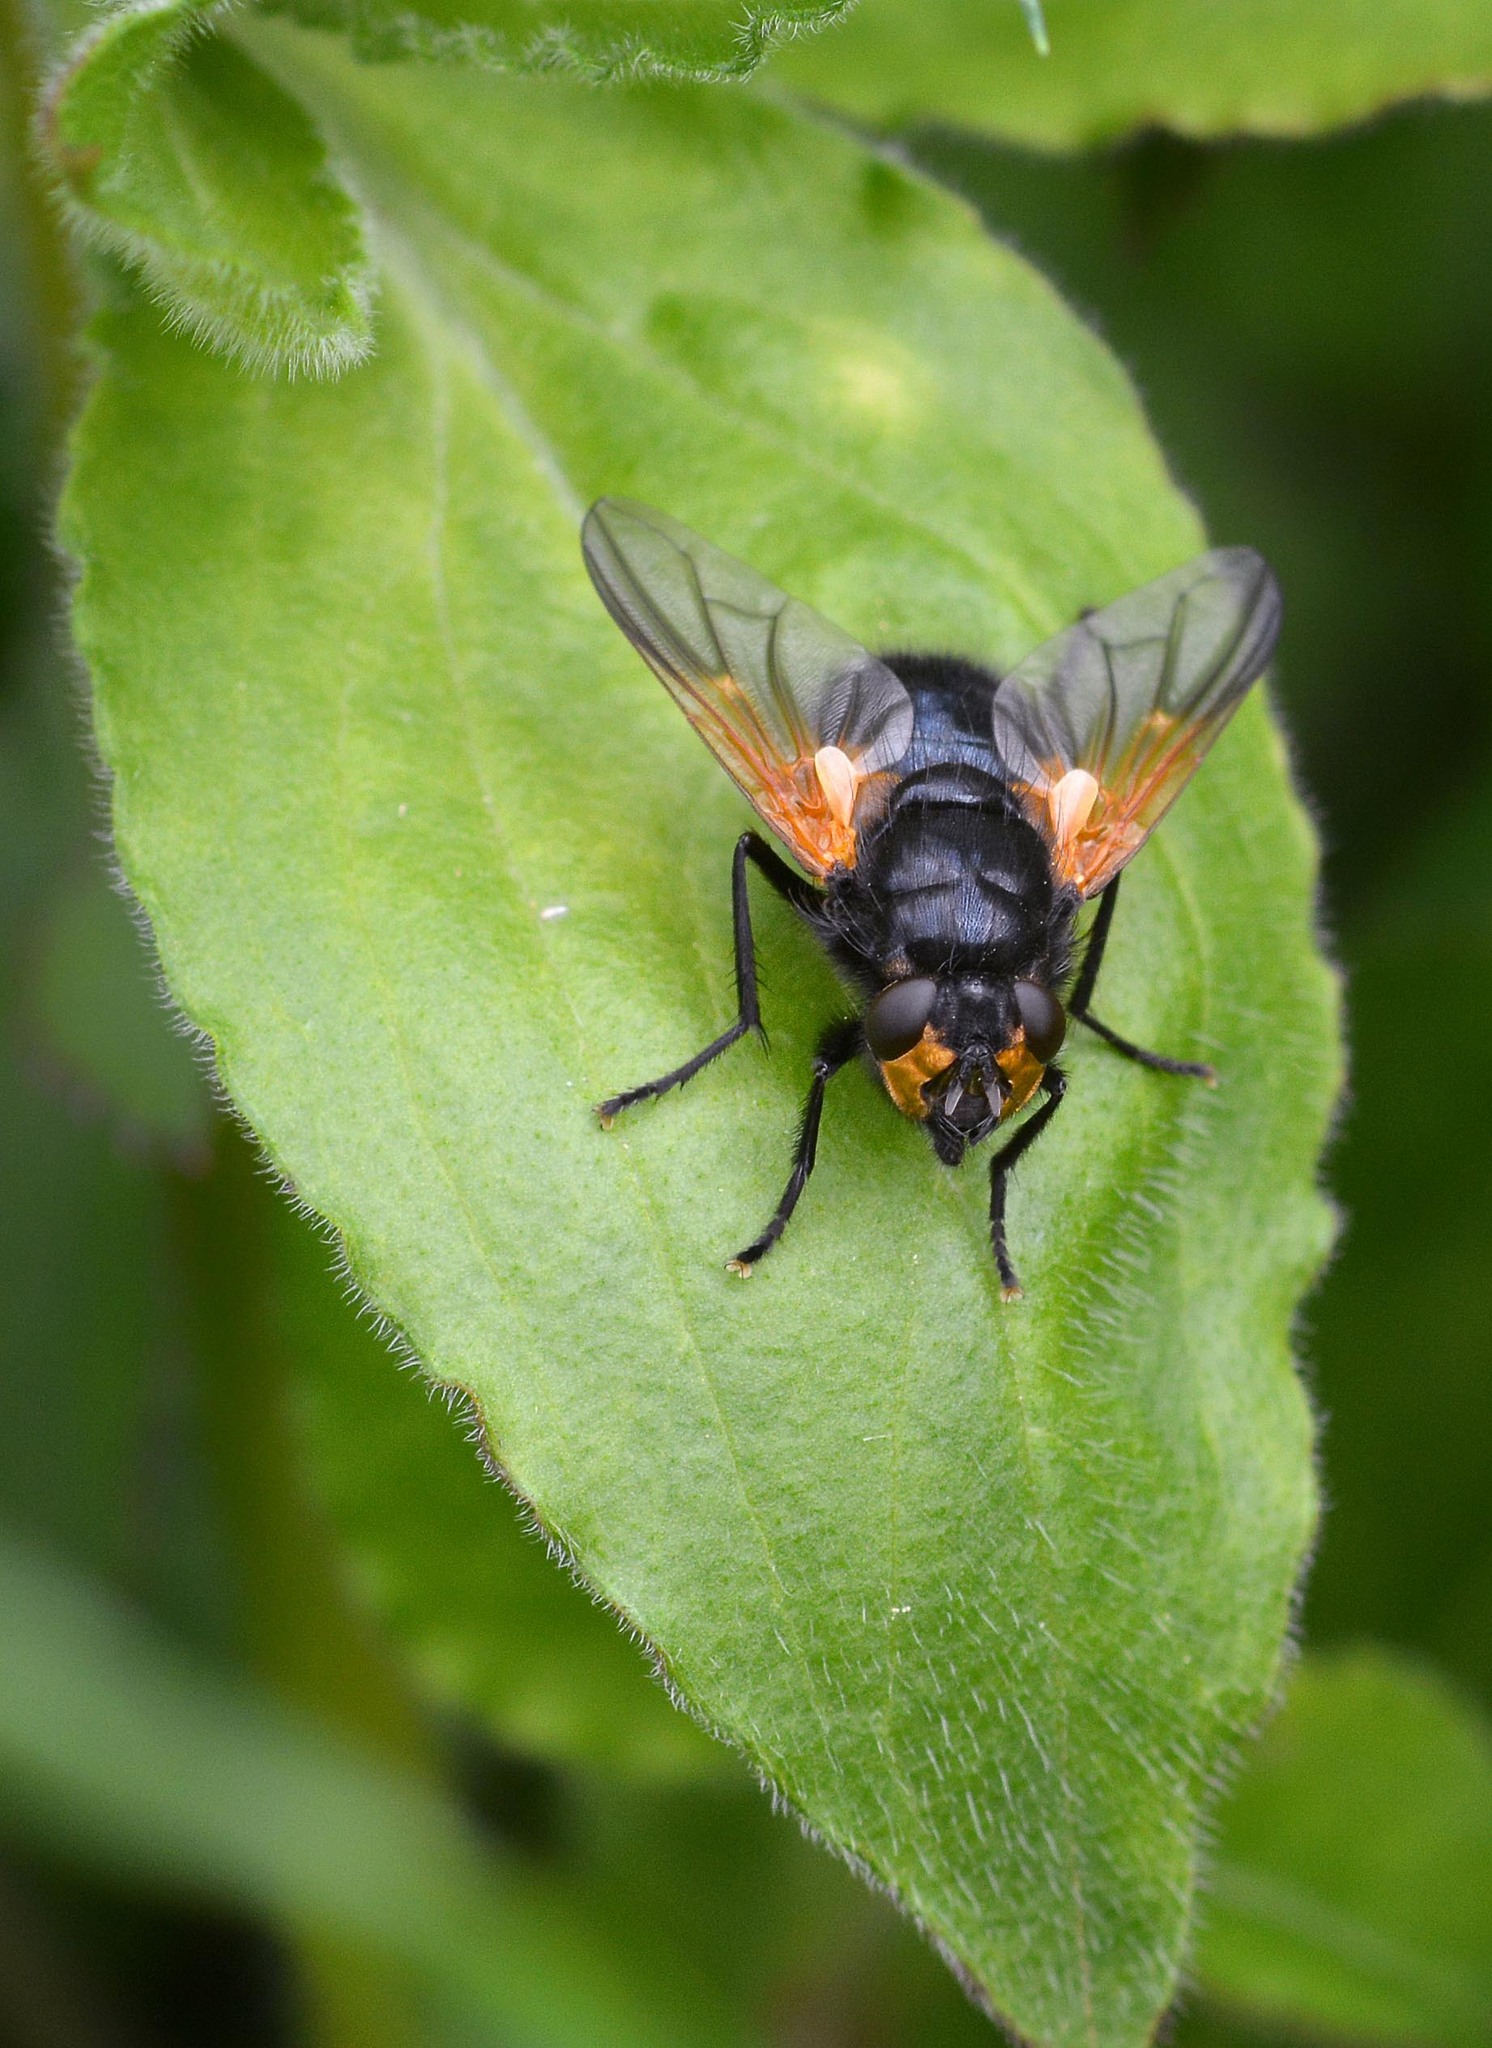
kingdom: Animalia
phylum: Arthropoda
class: Insecta
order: Diptera
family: Muscidae
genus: Mesembrina
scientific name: Mesembrina meridiana
